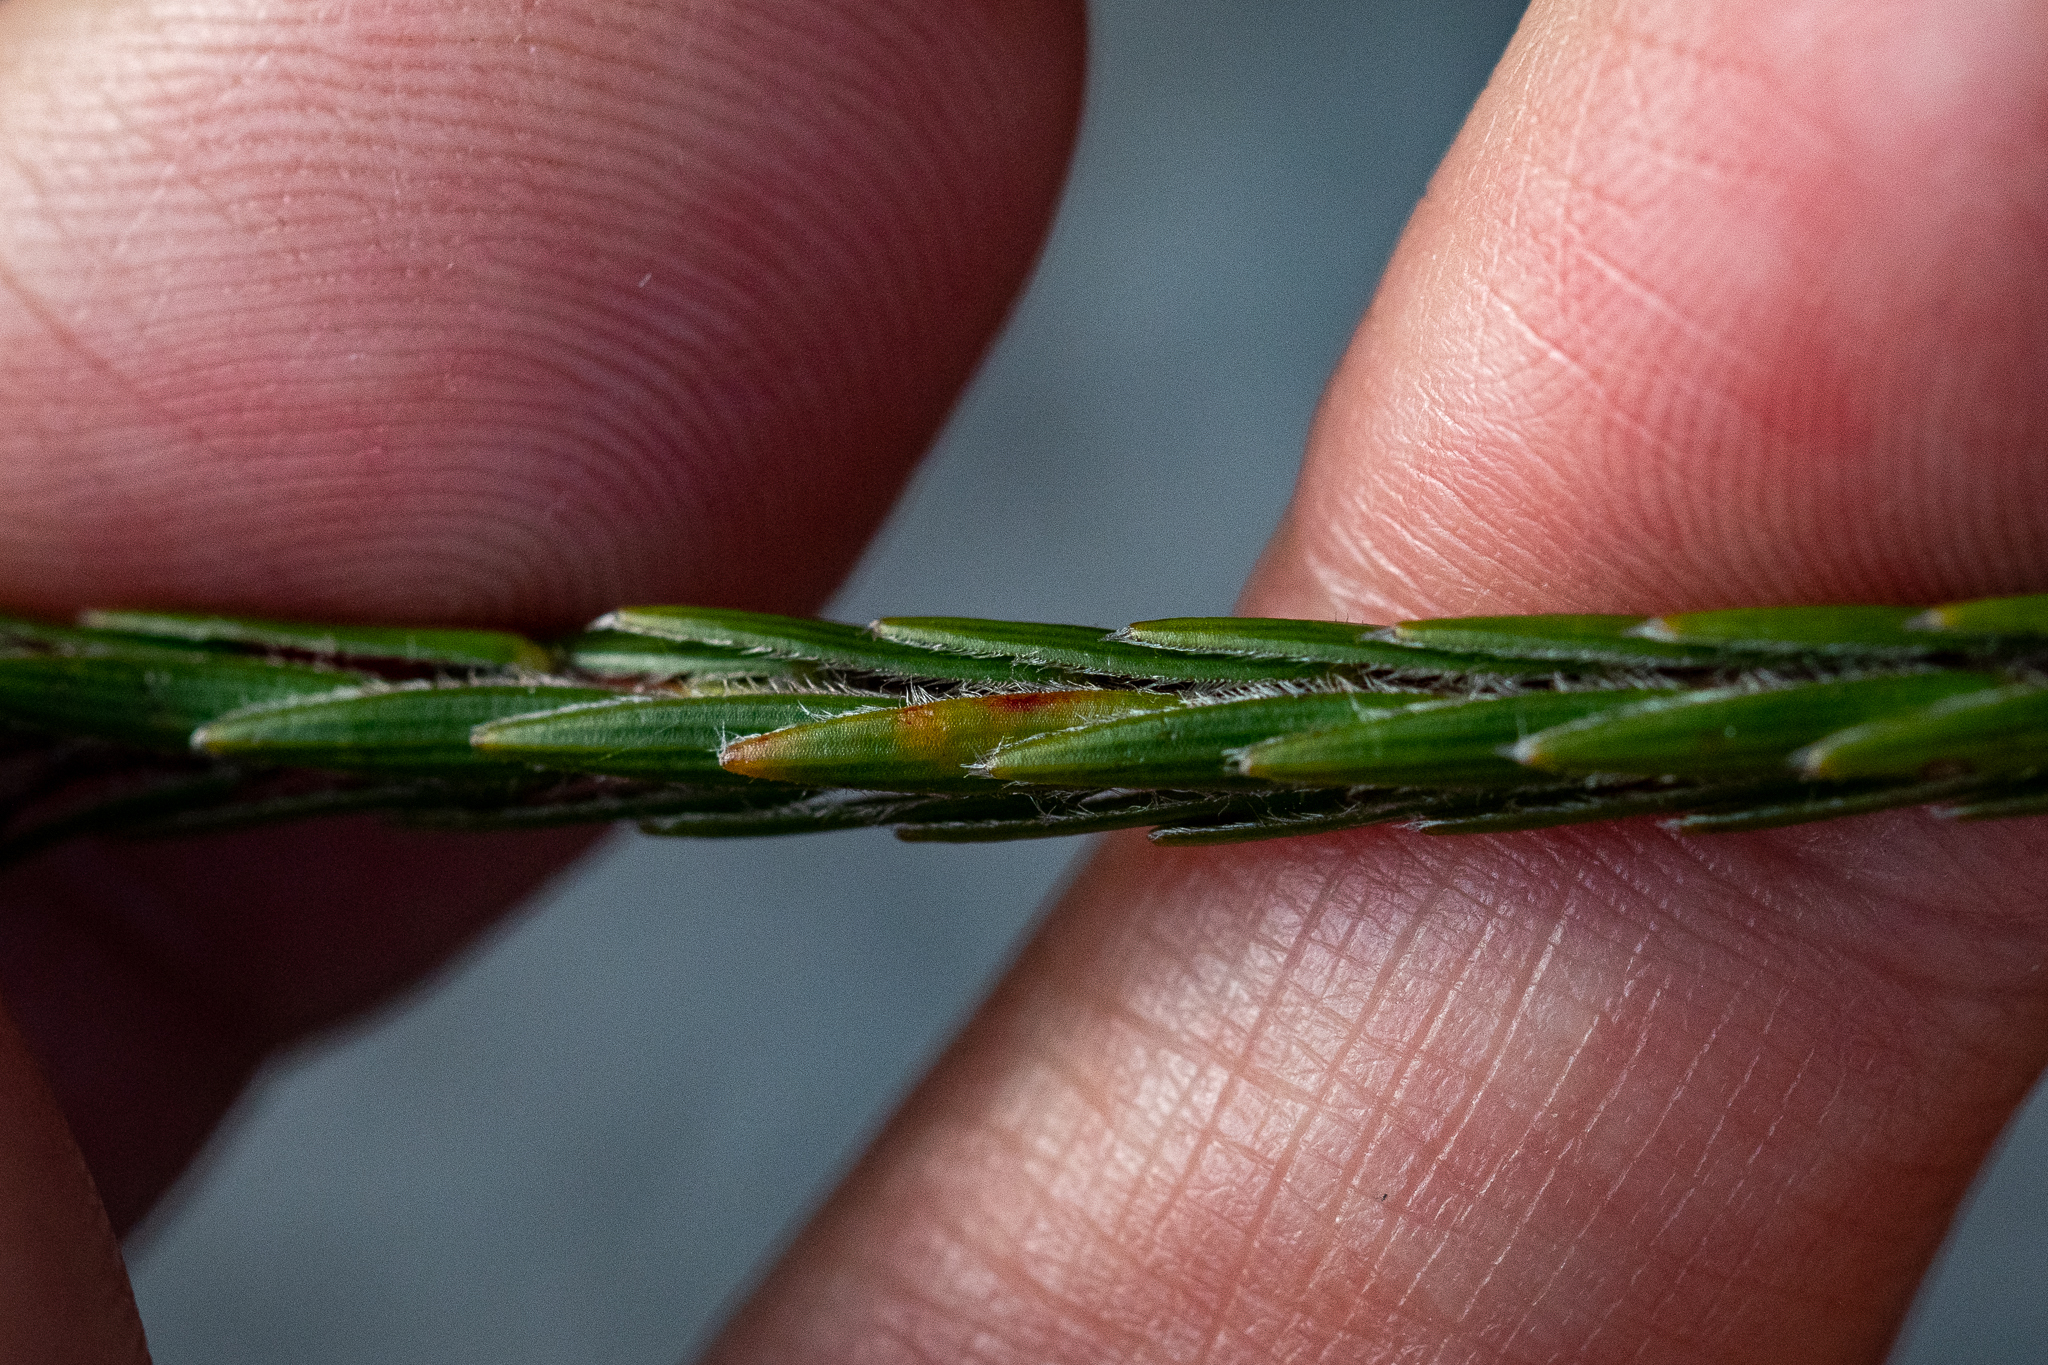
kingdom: Plantae
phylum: Tracheophyta
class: Magnoliopsida
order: Malvales
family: Thymelaeaceae
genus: Struthiola
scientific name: Struthiola ciliata
